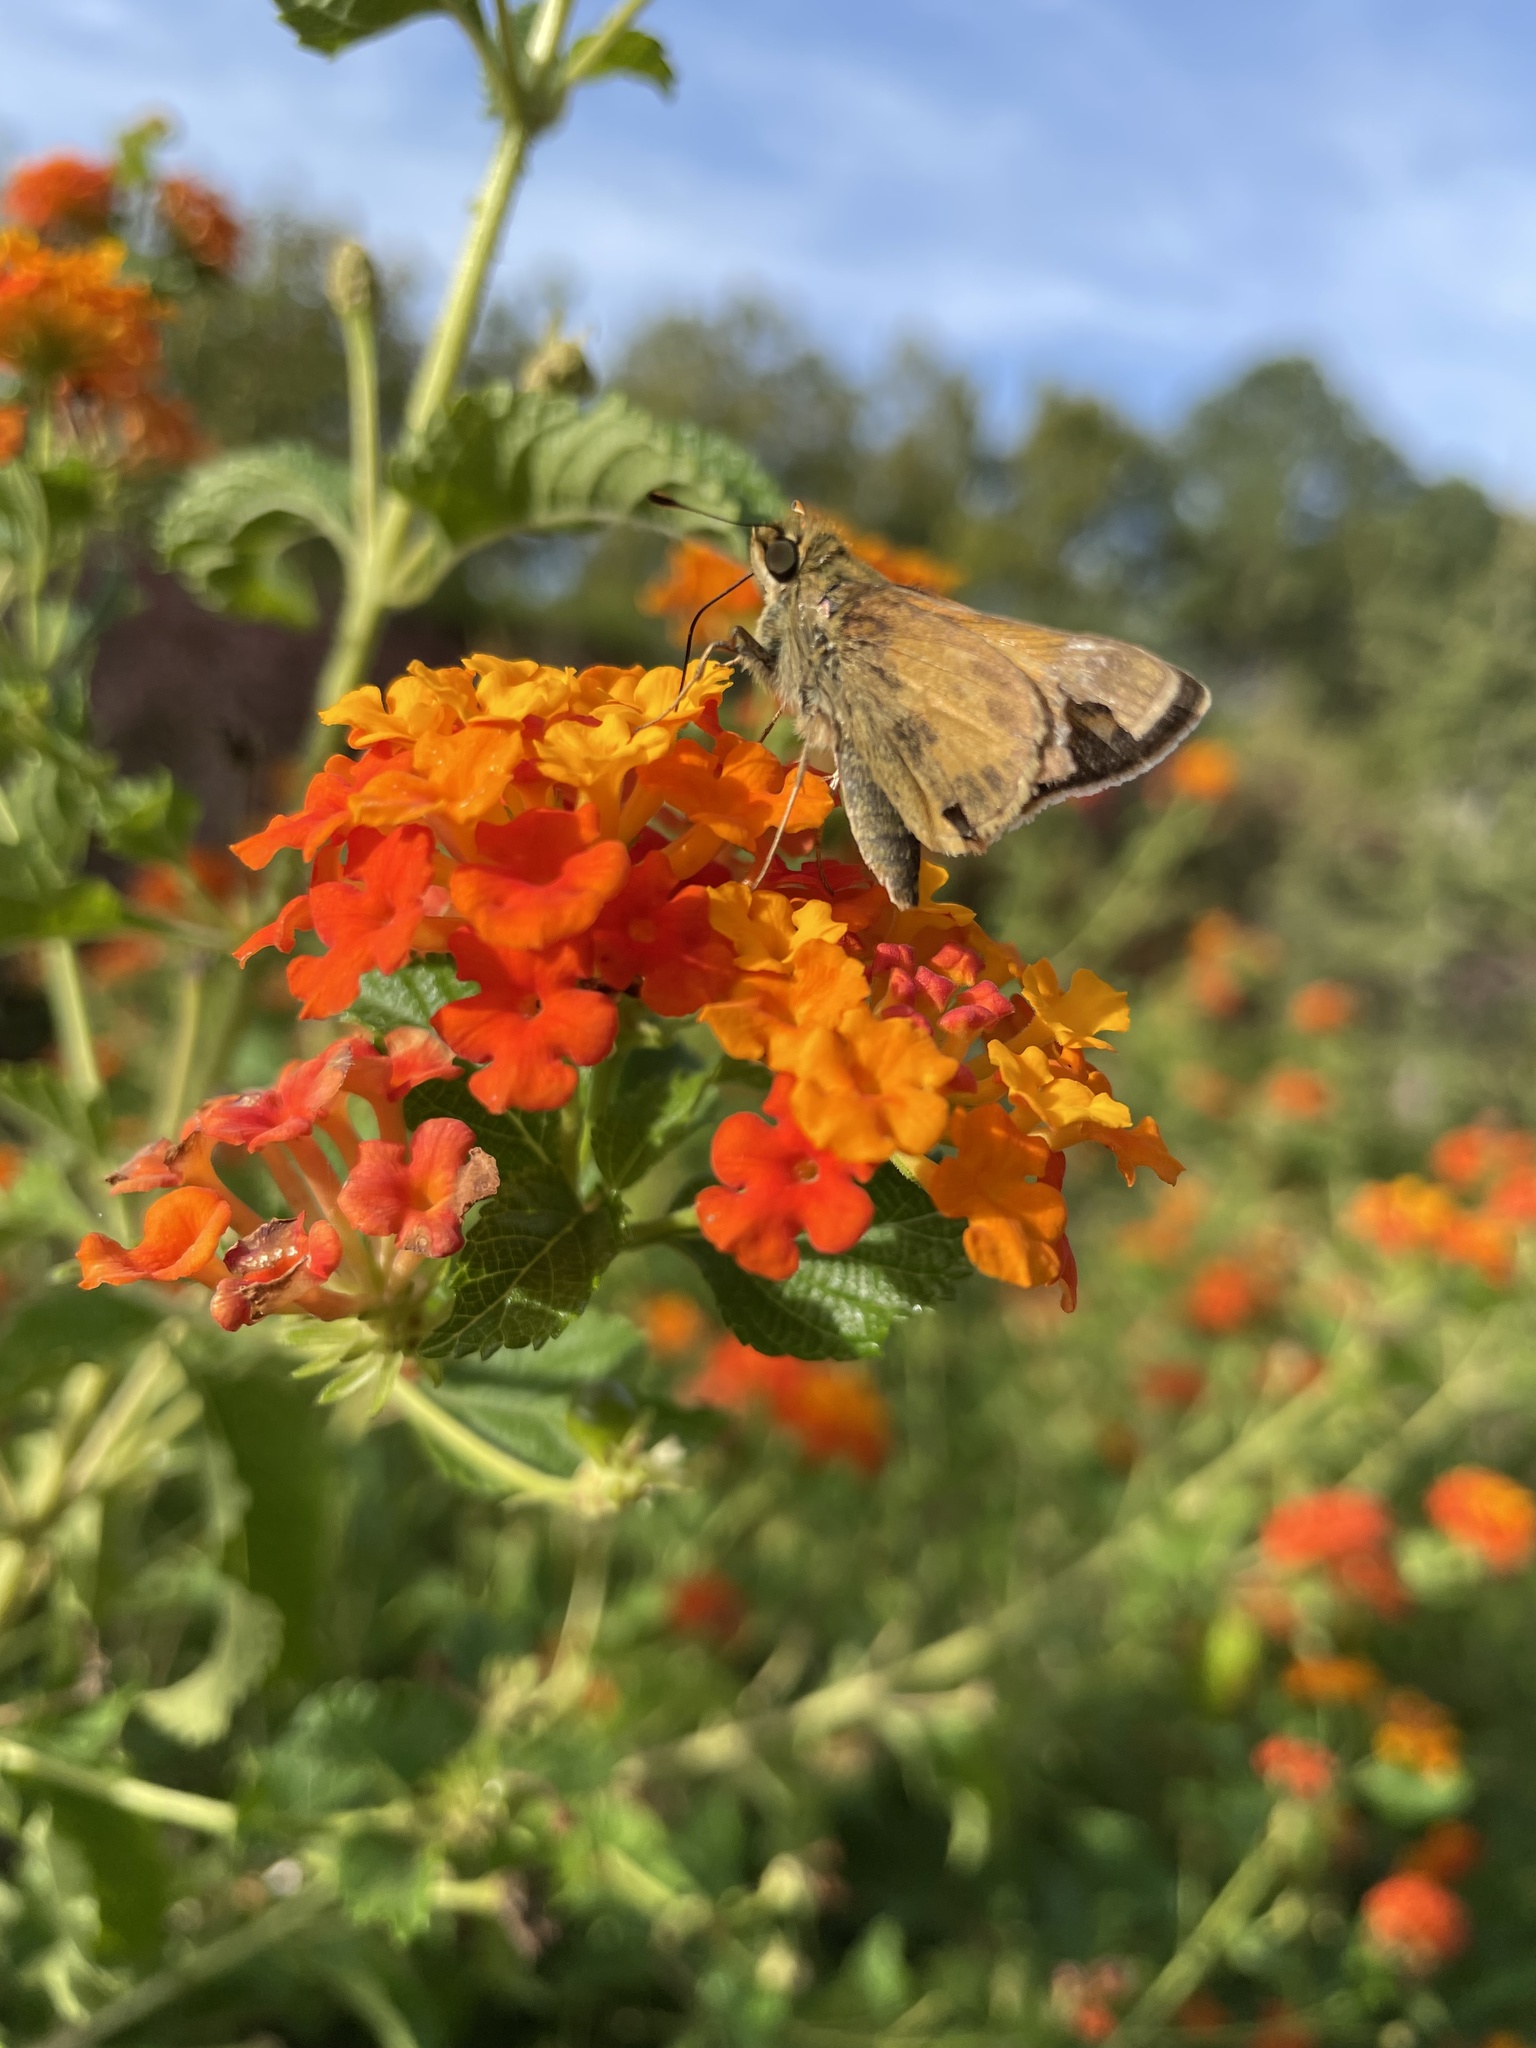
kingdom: Animalia
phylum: Arthropoda
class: Insecta
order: Lepidoptera
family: Hesperiidae
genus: Atalopedes
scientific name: Atalopedes
